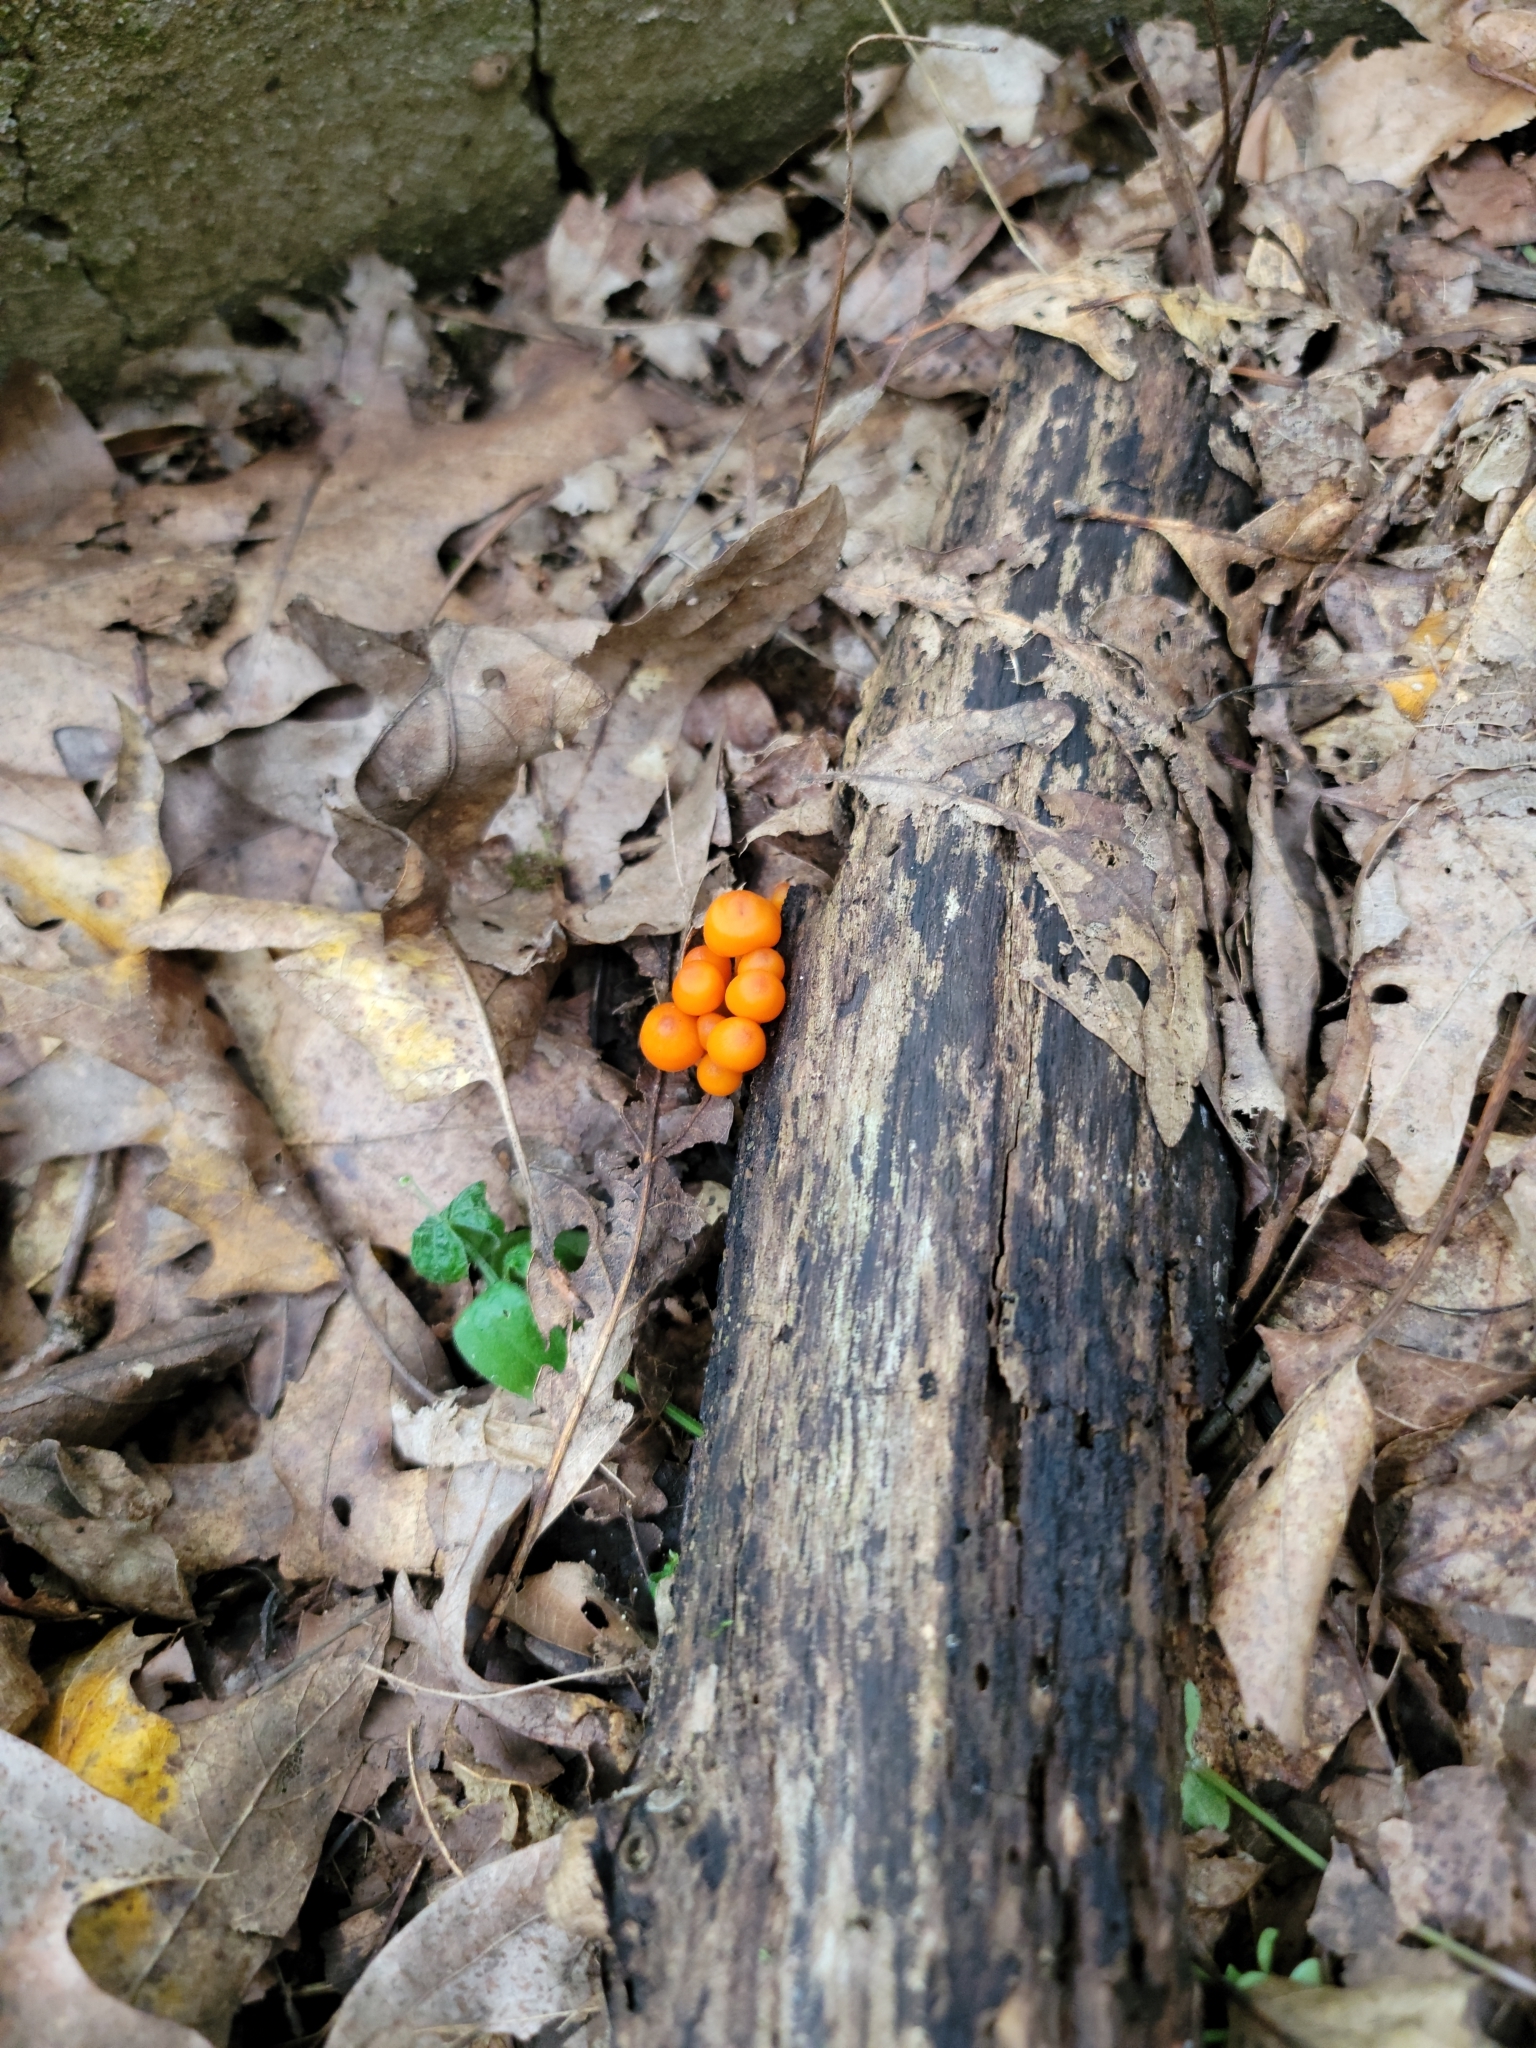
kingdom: Fungi
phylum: Basidiomycota
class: Agaricomycetes
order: Agaricales
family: Mycenaceae
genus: Mycena
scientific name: Mycena leaiana
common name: Orange mycena
